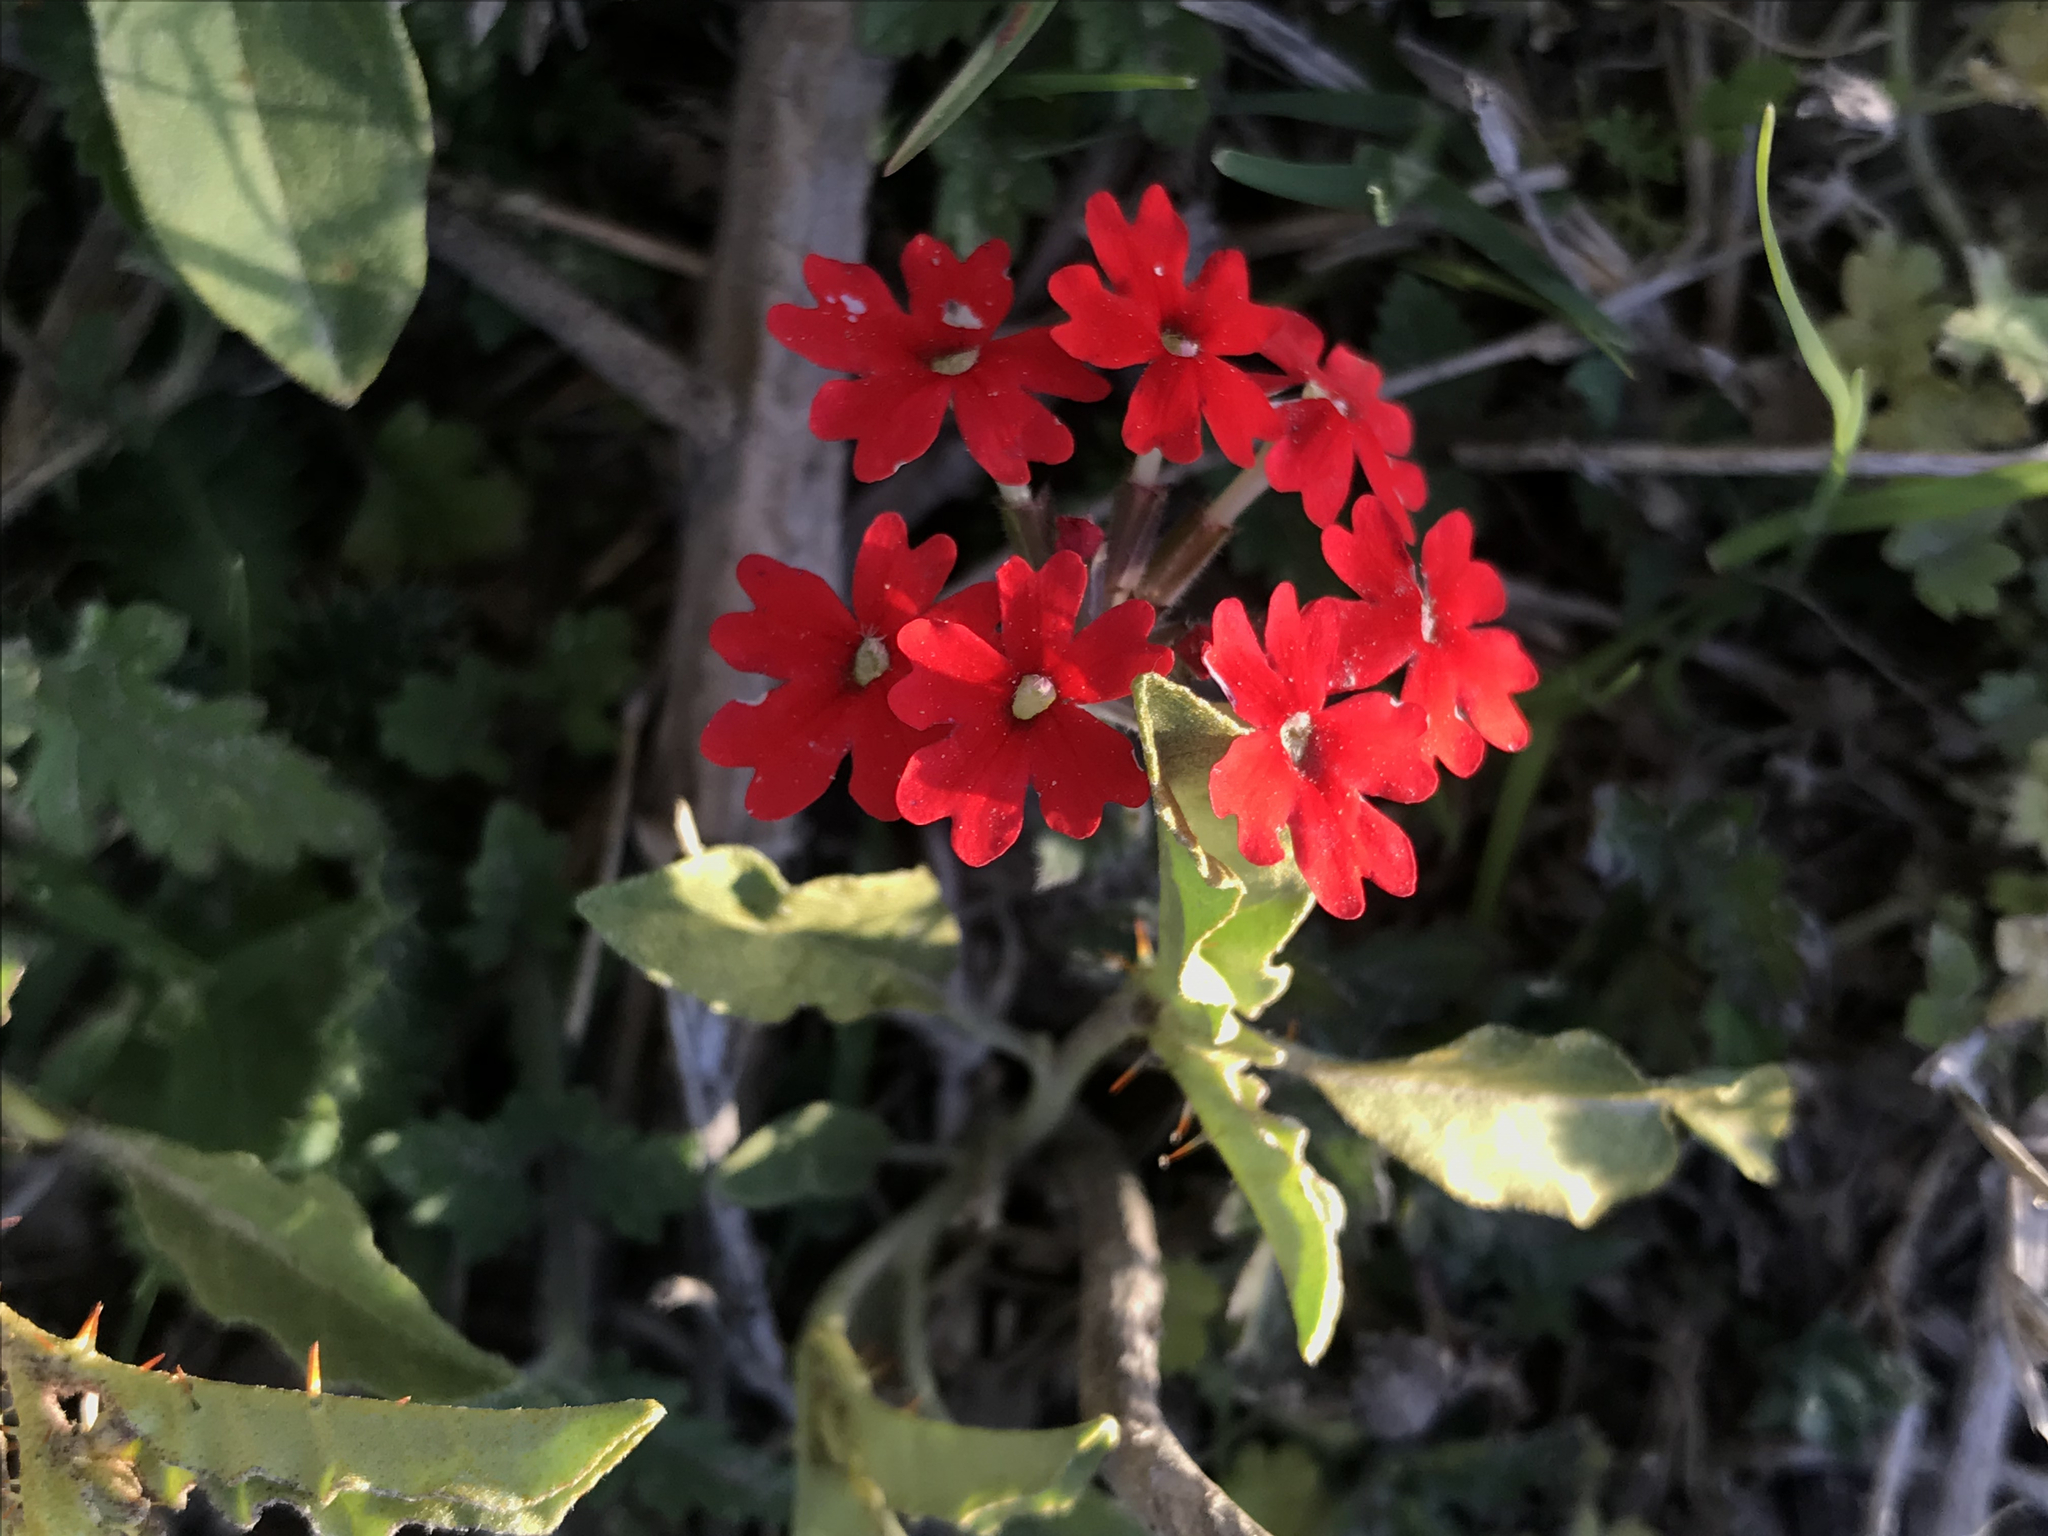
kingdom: Plantae
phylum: Tracheophyta
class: Magnoliopsida
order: Lamiales
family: Verbenaceae
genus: Verbena
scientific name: Verbena tweedieana
